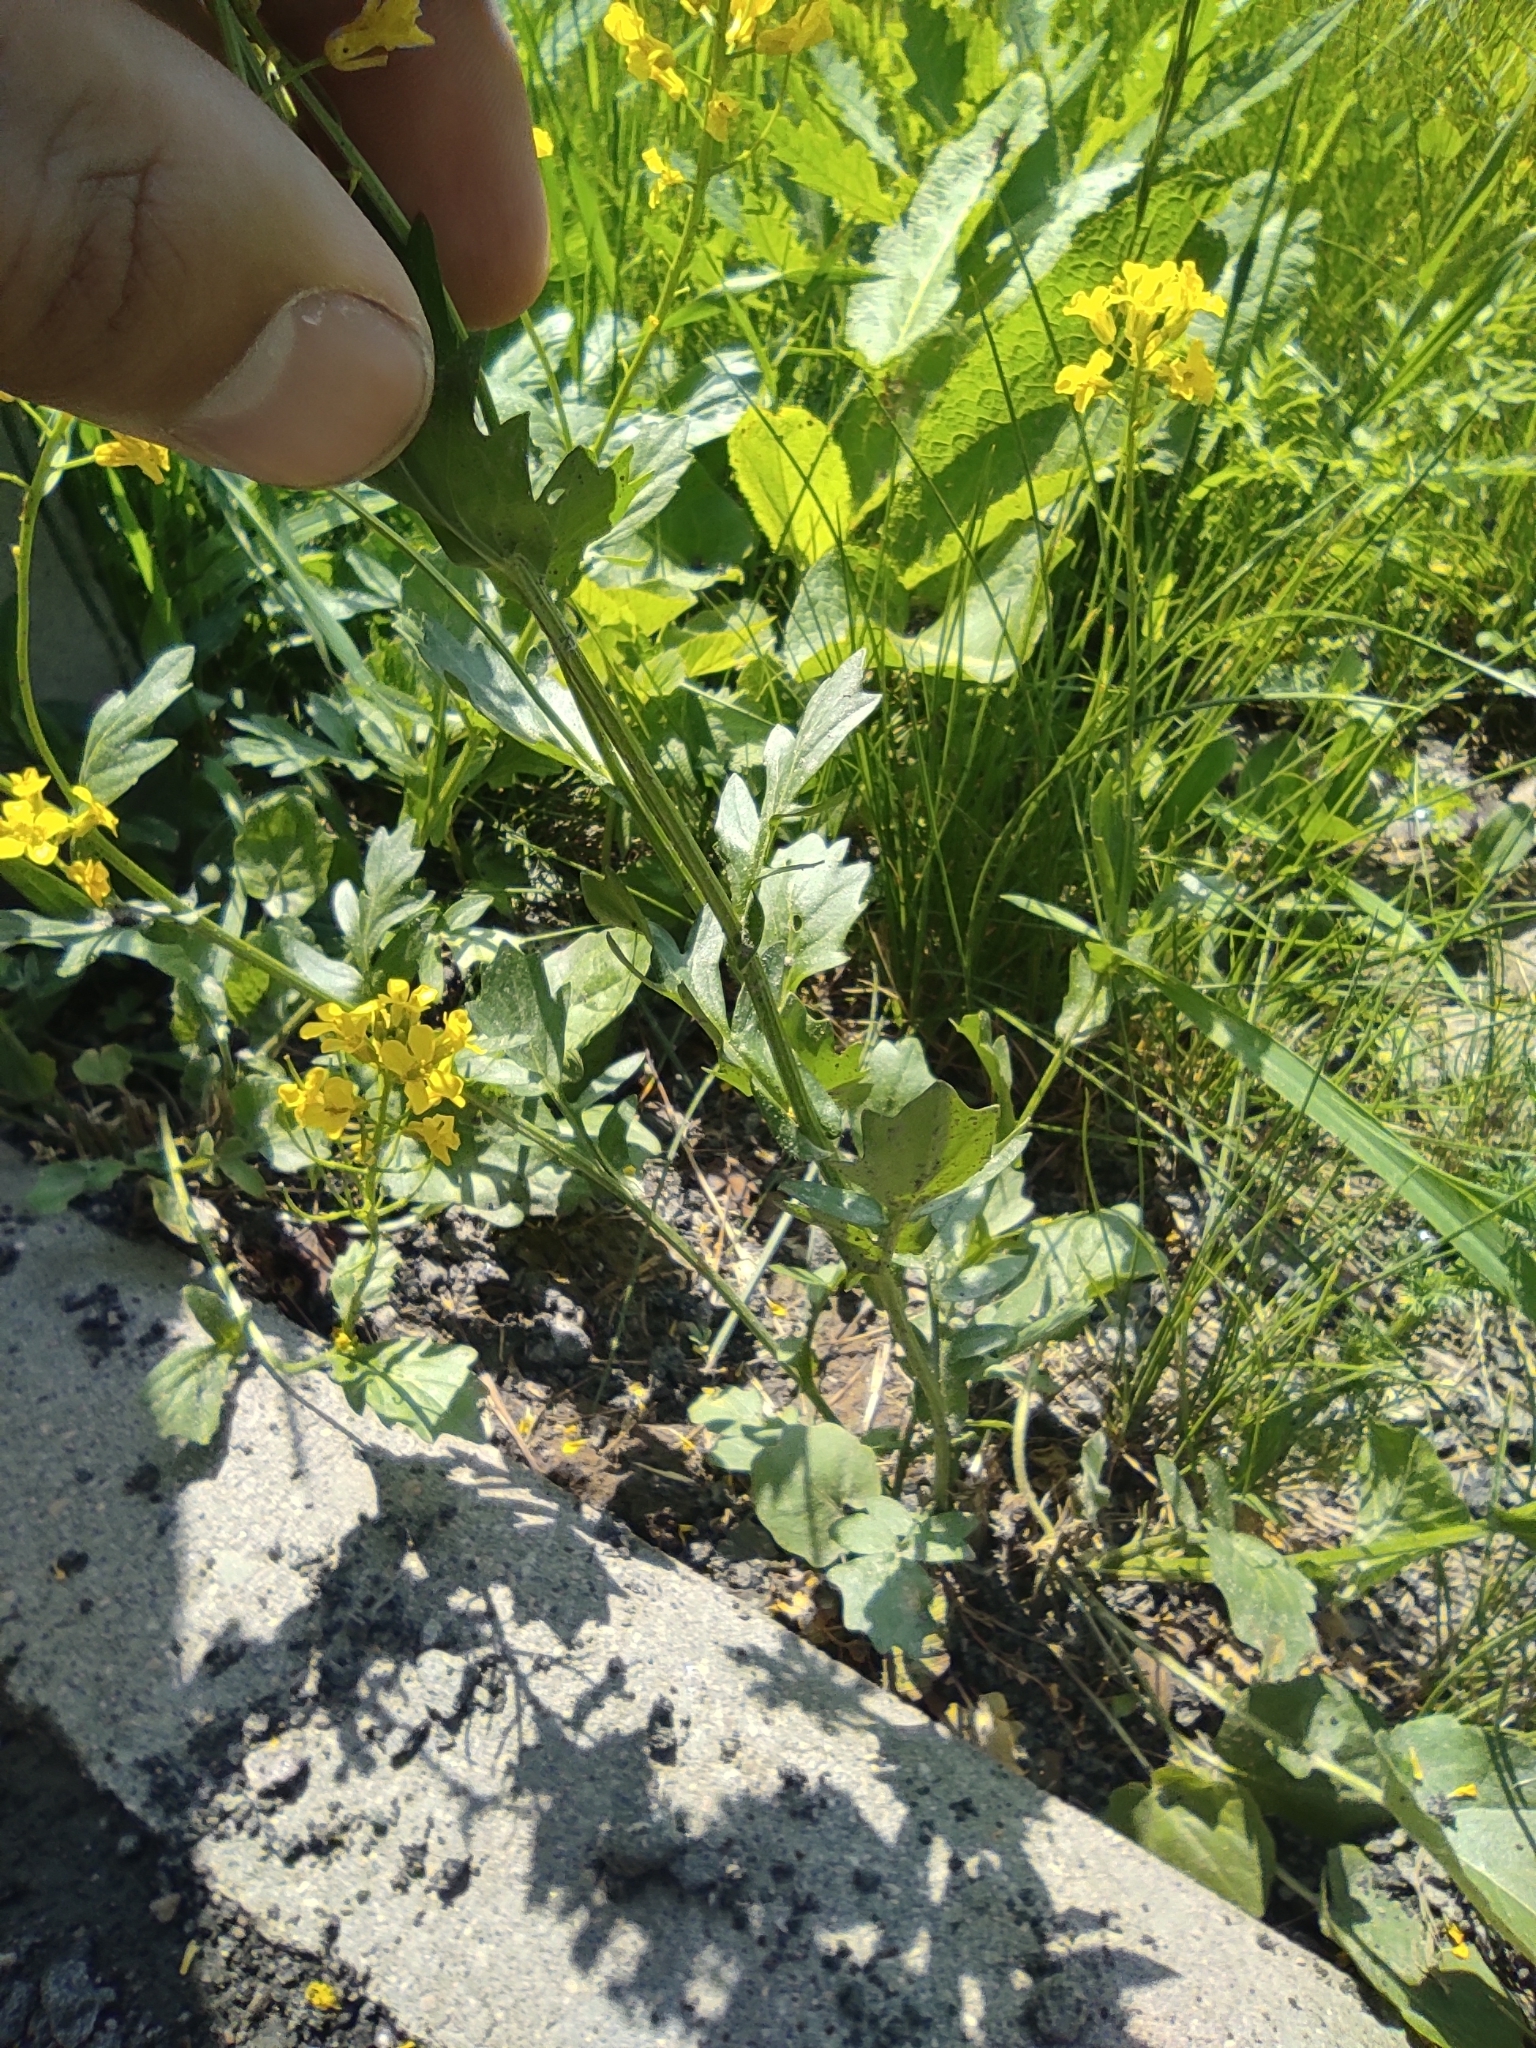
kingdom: Plantae
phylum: Tracheophyta
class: Magnoliopsida
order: Brassicales
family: Brassicaceae
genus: Barbarea
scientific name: Barbarea vulgaris
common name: Cressy-greens
